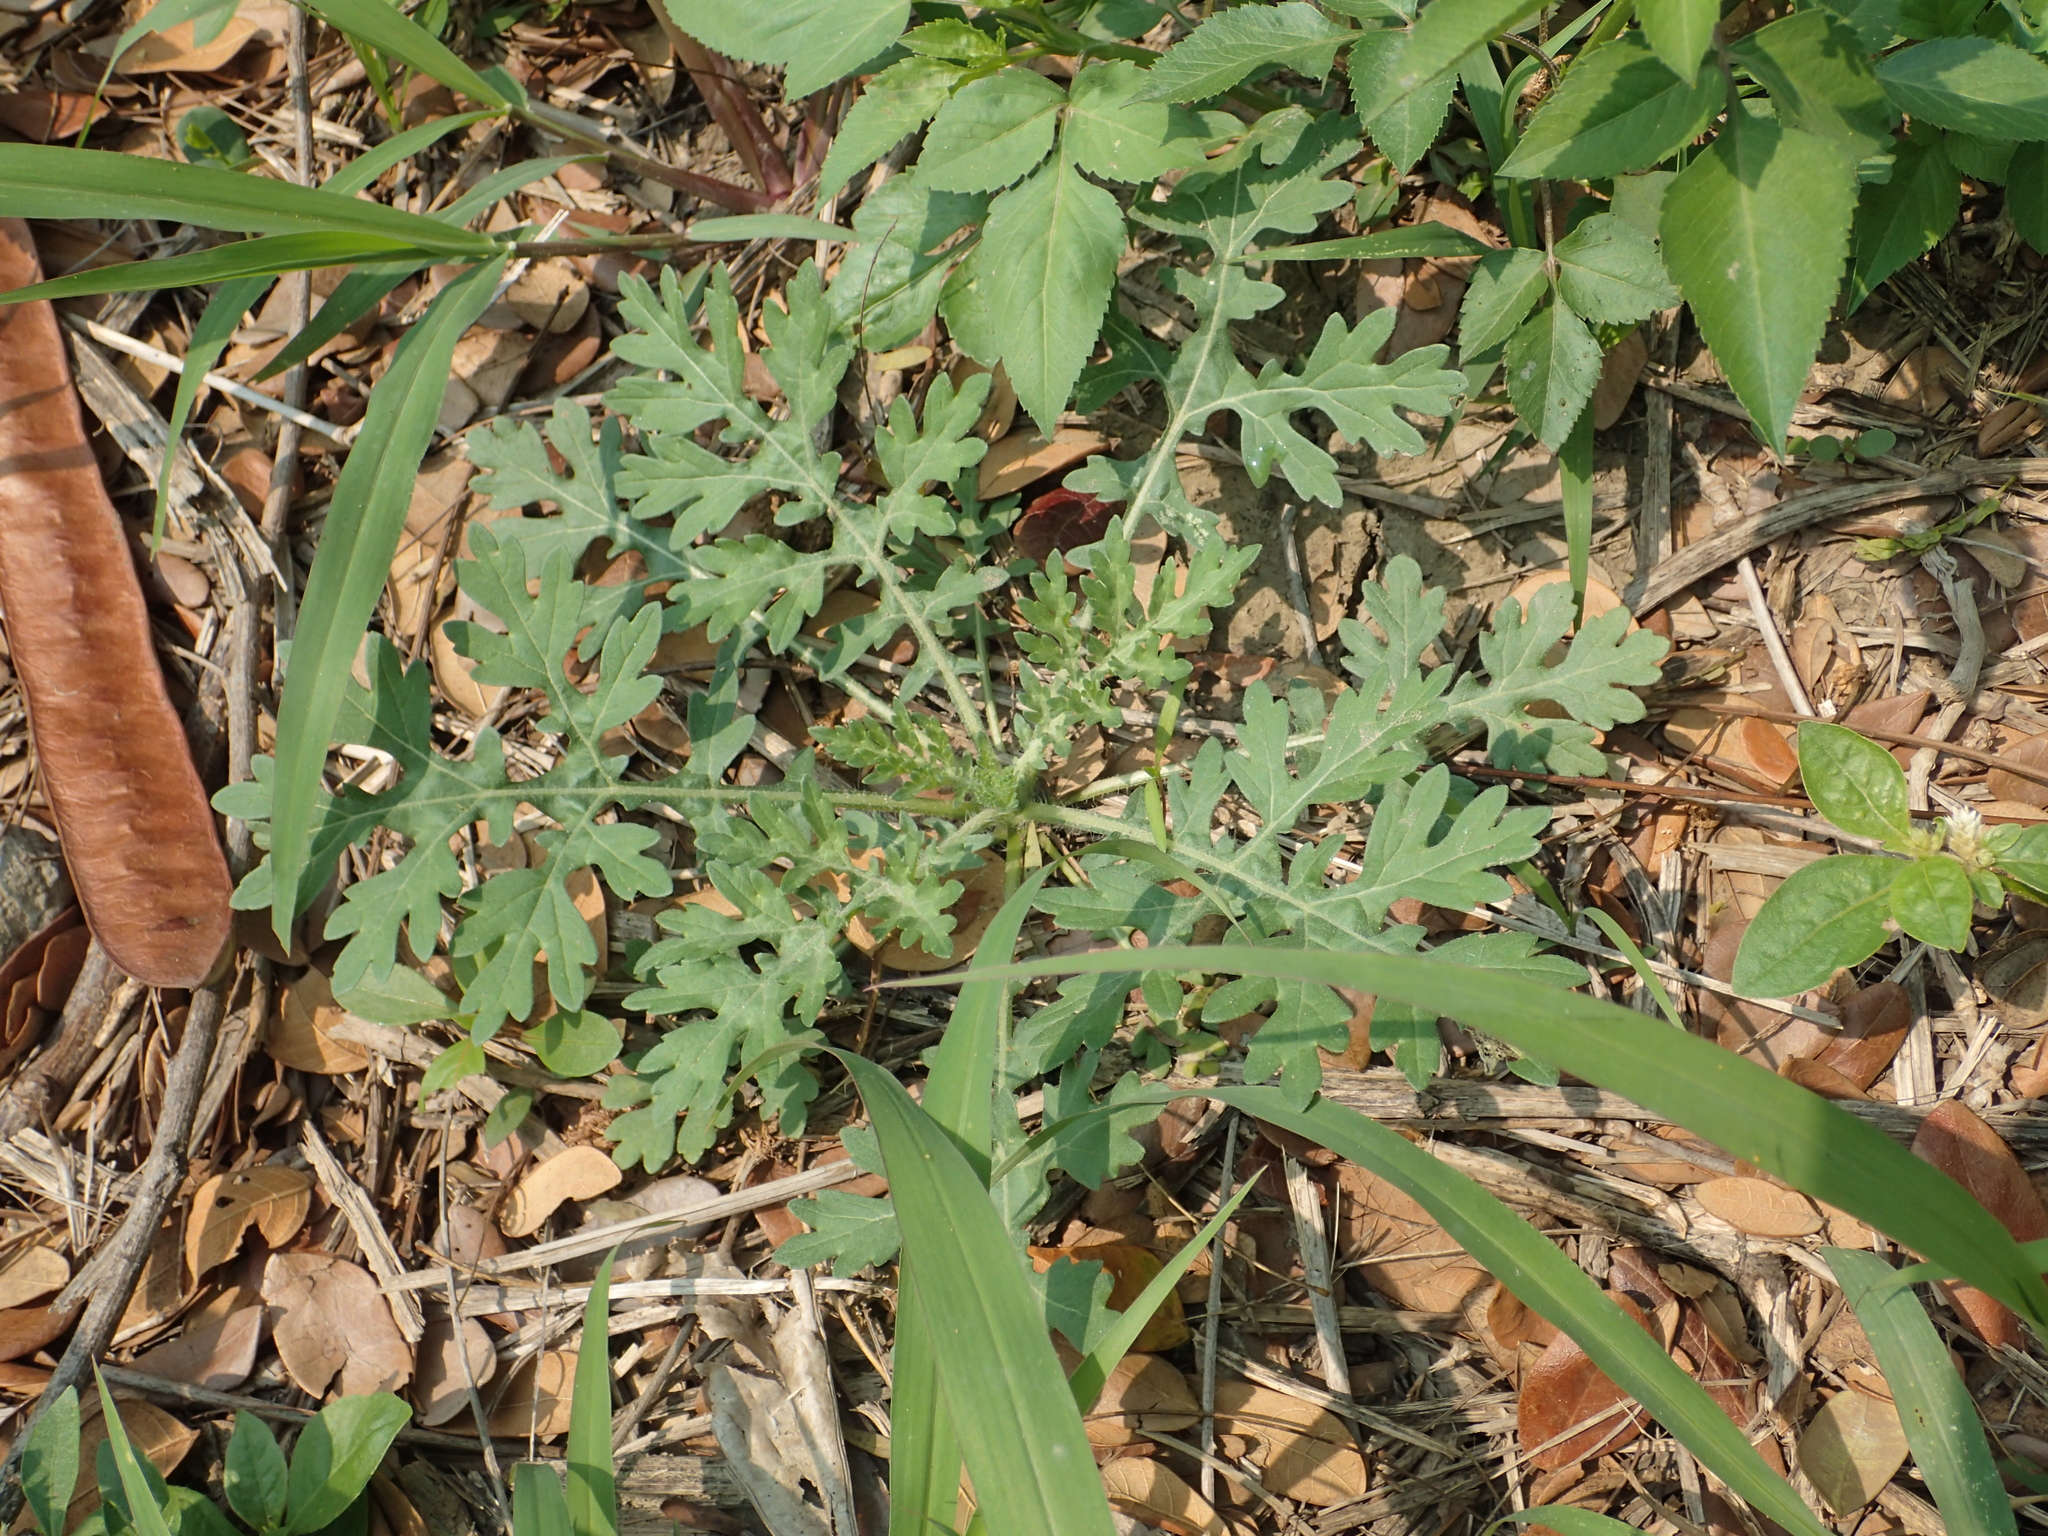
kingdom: Plantae
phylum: Tracheophyta
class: Magnoliopsida
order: Asterales
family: Asteraceae
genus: Parthenium
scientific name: Parthenium hysterophorus
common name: Santa maria feverfew
